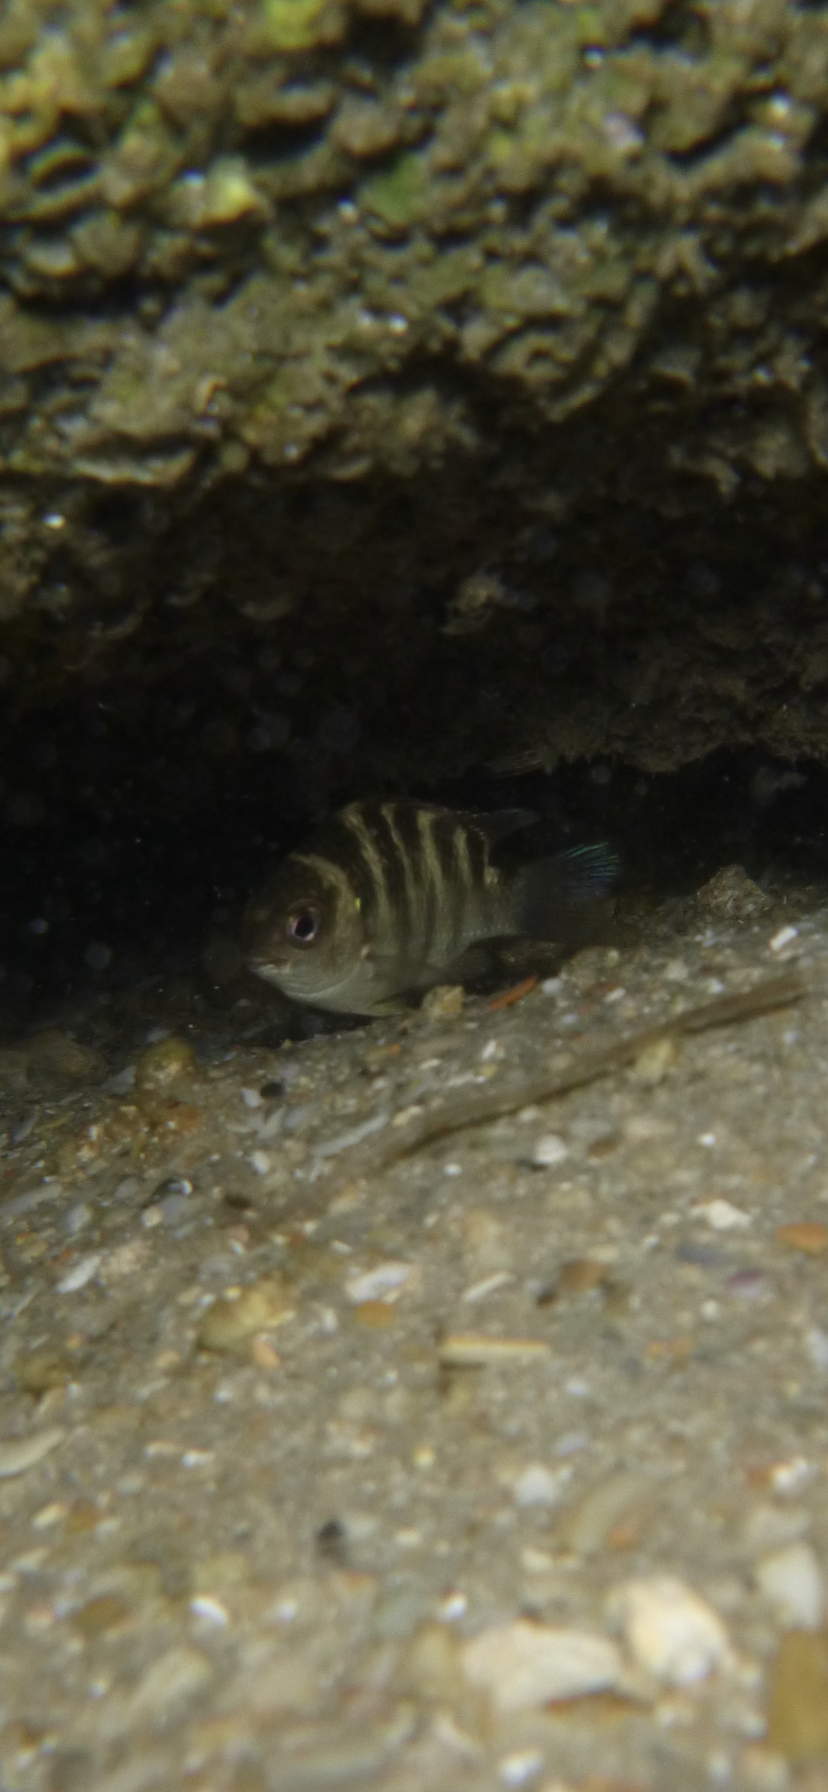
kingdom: Animalia
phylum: Chordata
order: Perciformes
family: Pomacentridae
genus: Abudefduf
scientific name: Abudefduf taurus
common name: Night sergeant
